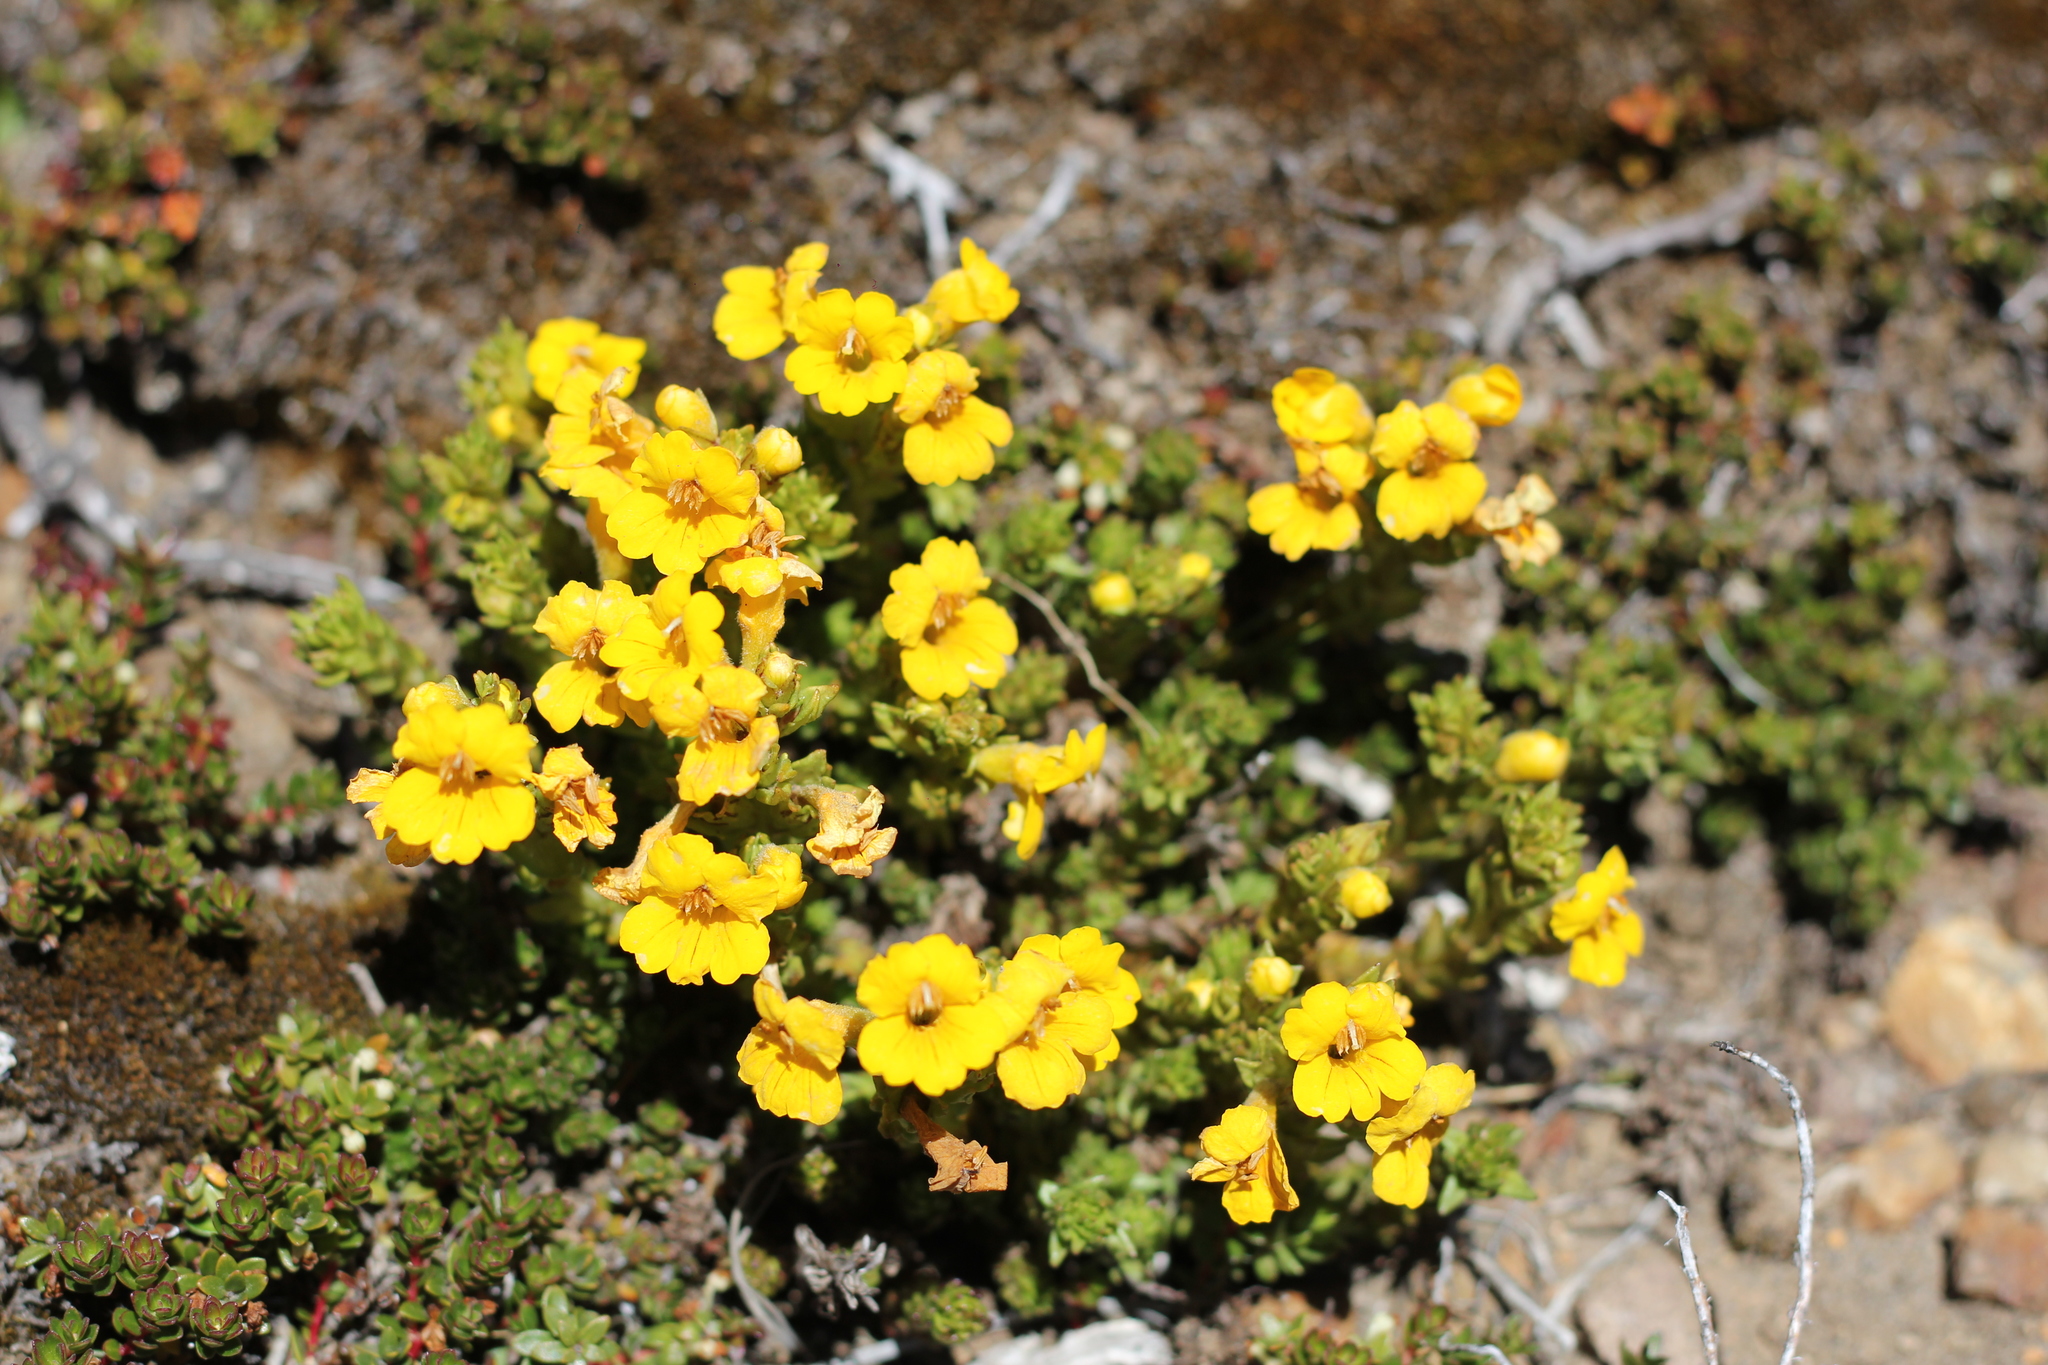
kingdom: Plantae
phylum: Tracheophyta
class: Magnoliopsida
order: Lamiales
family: Orobanchaceae
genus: Euphrasia
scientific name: Euphrasia subexserta
